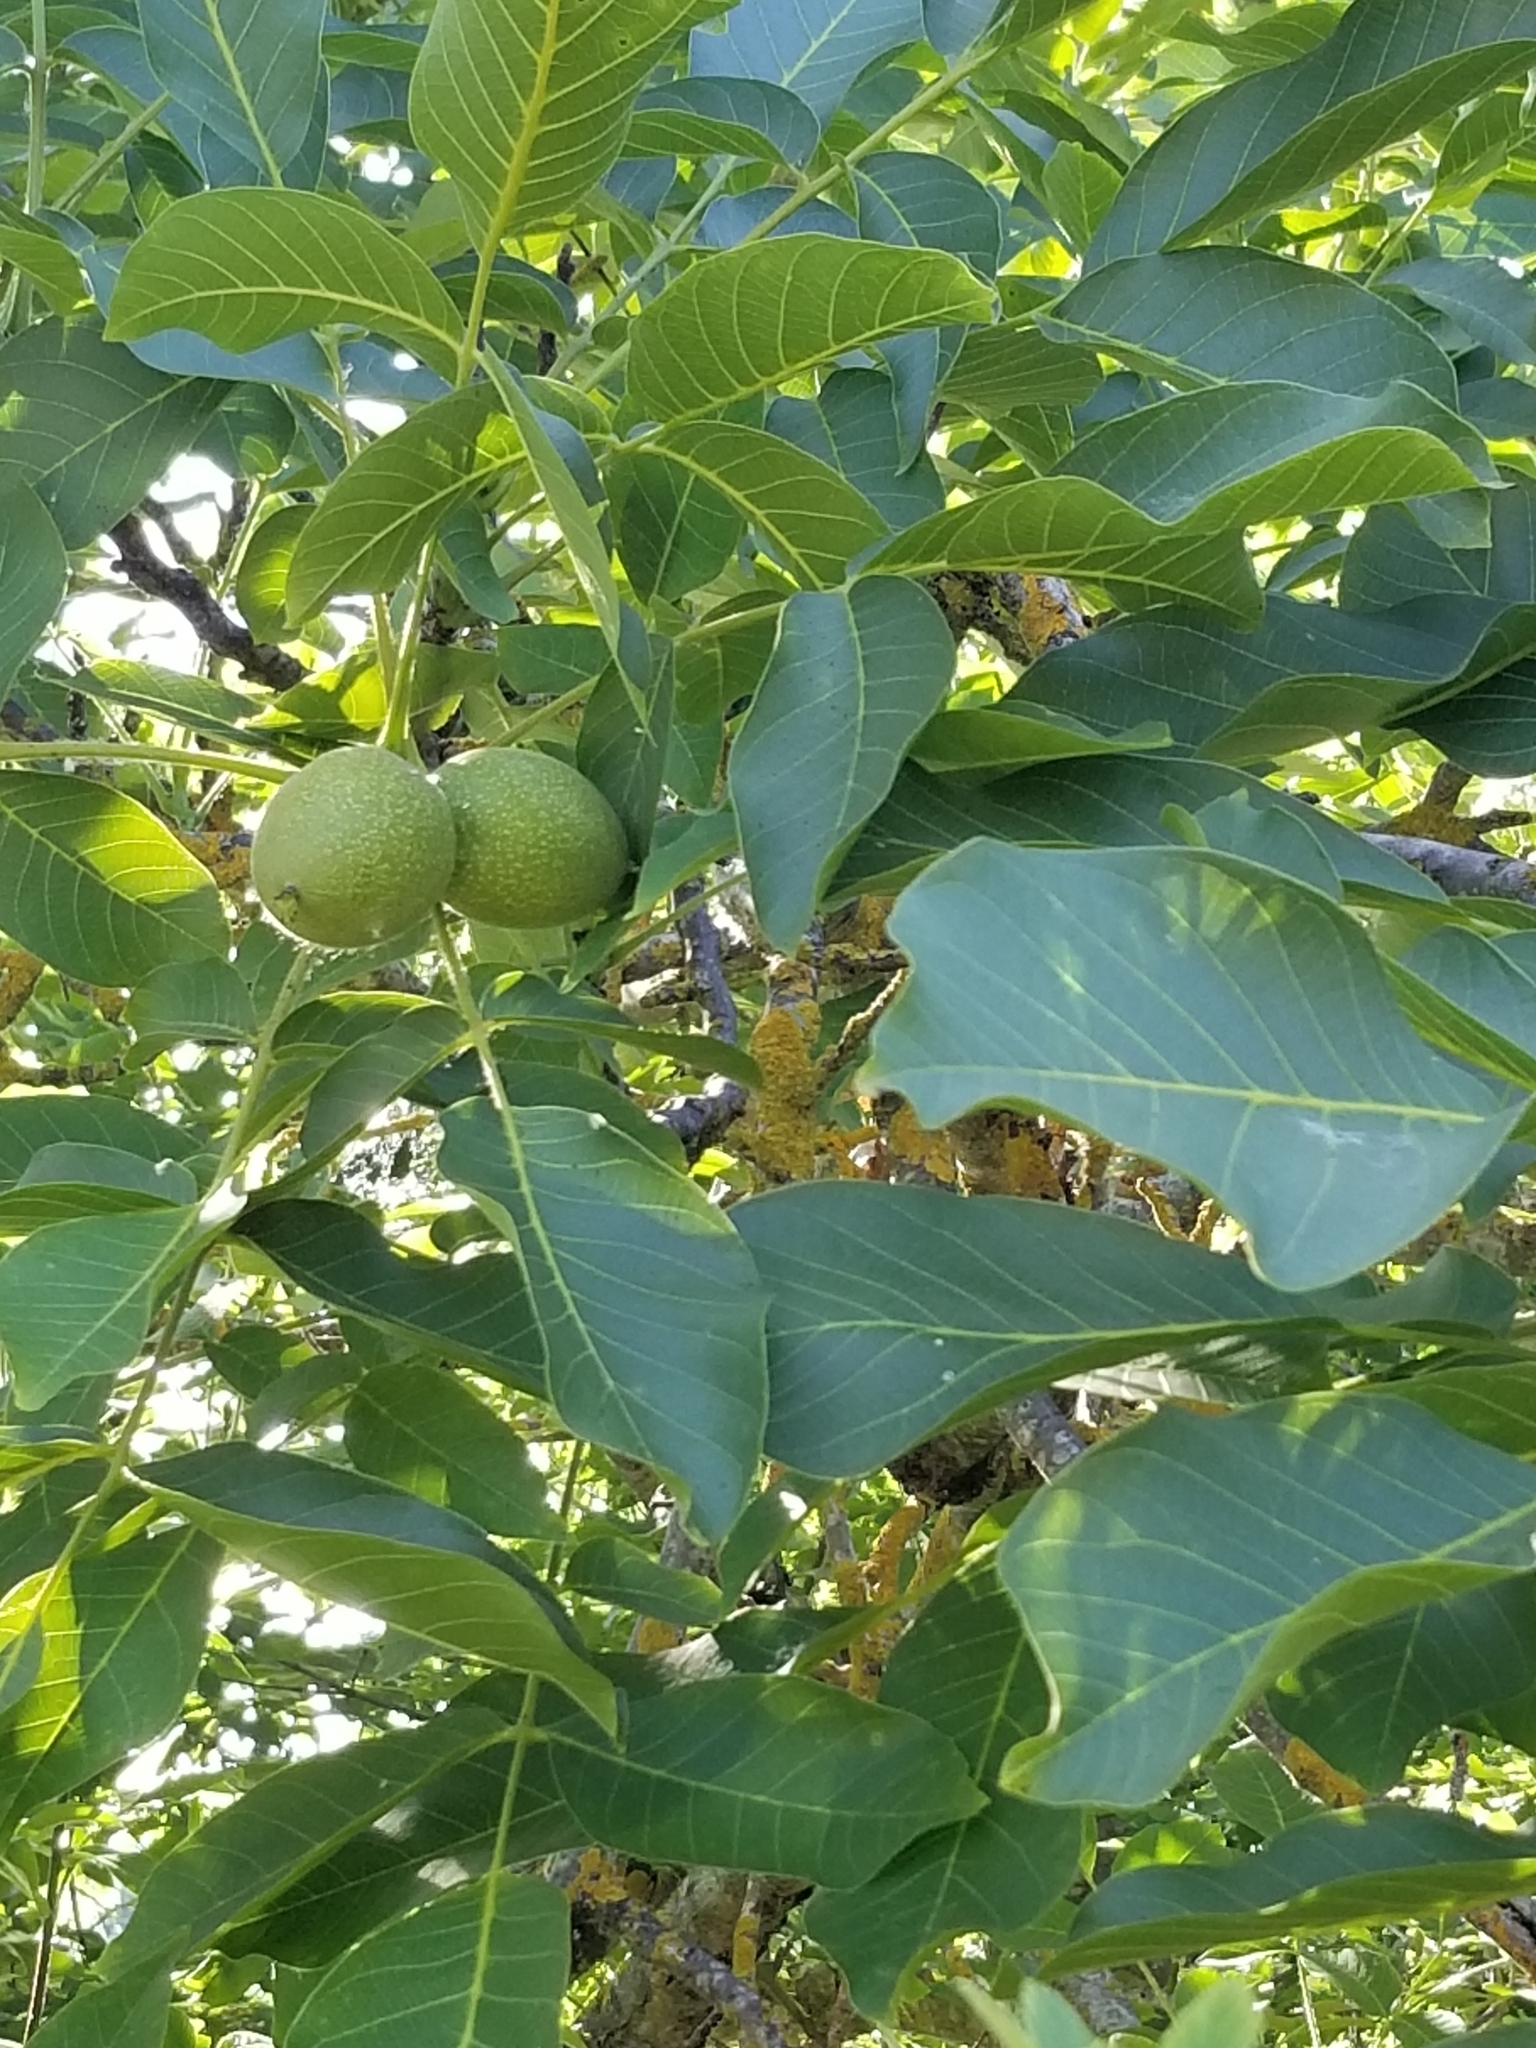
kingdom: Plantae
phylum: Tracheophyta
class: Magnoliopsida
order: Fagales
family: Juglandaceae
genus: Juglans
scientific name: Juglans regia
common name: Walnut
